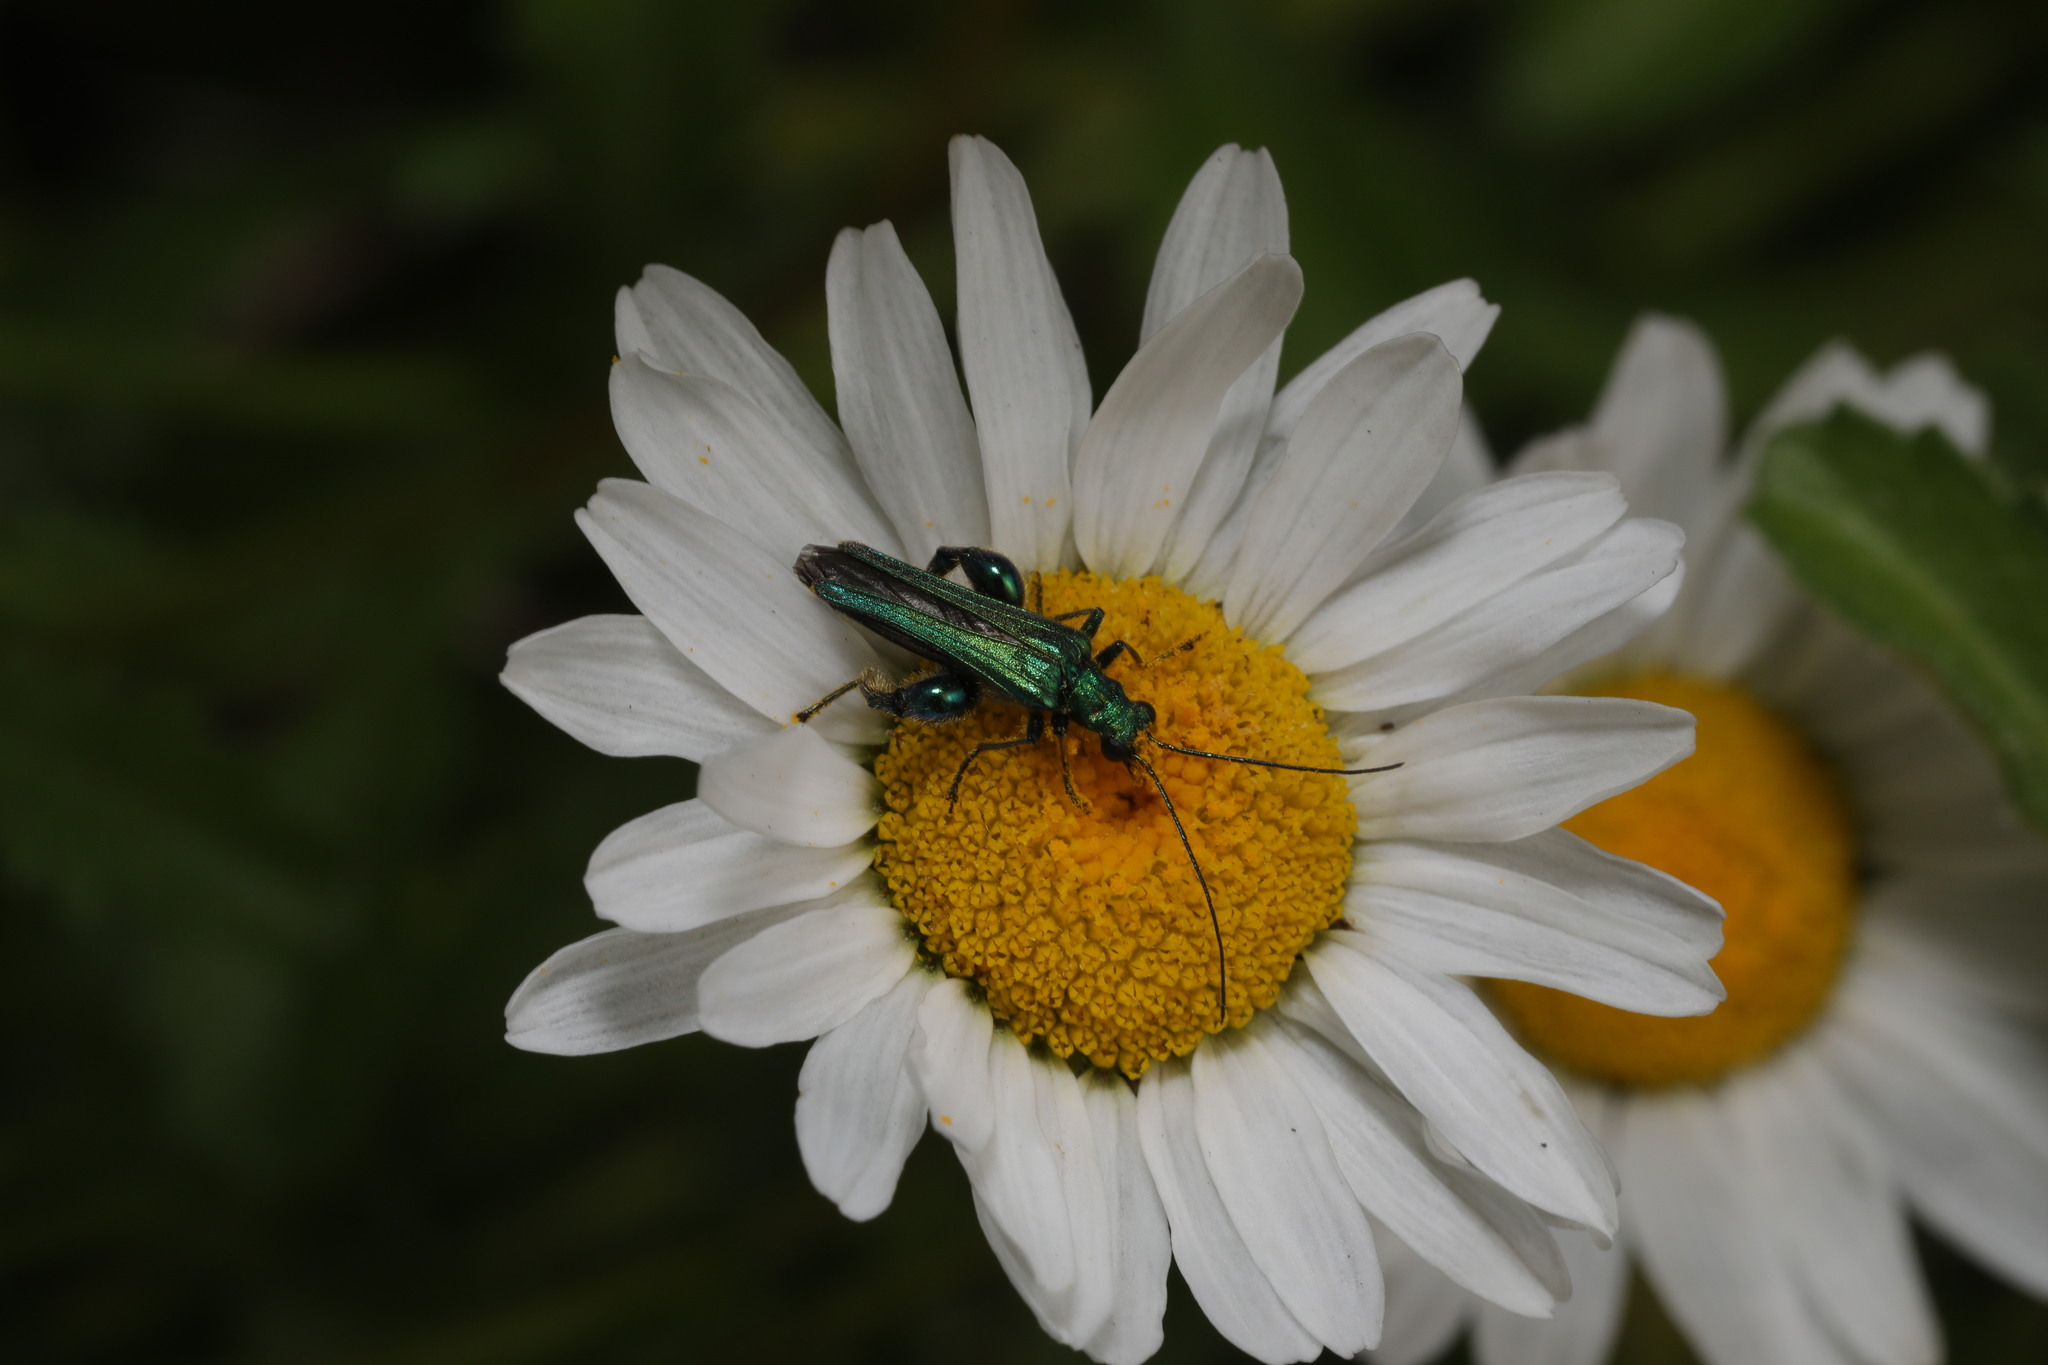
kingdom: Animalia
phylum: Arthropoda
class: Insecta
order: Coleoptera
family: Oedemeridae
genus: Oedemera
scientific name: Oedemera nobilis
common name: Swollen-thighed beetle
